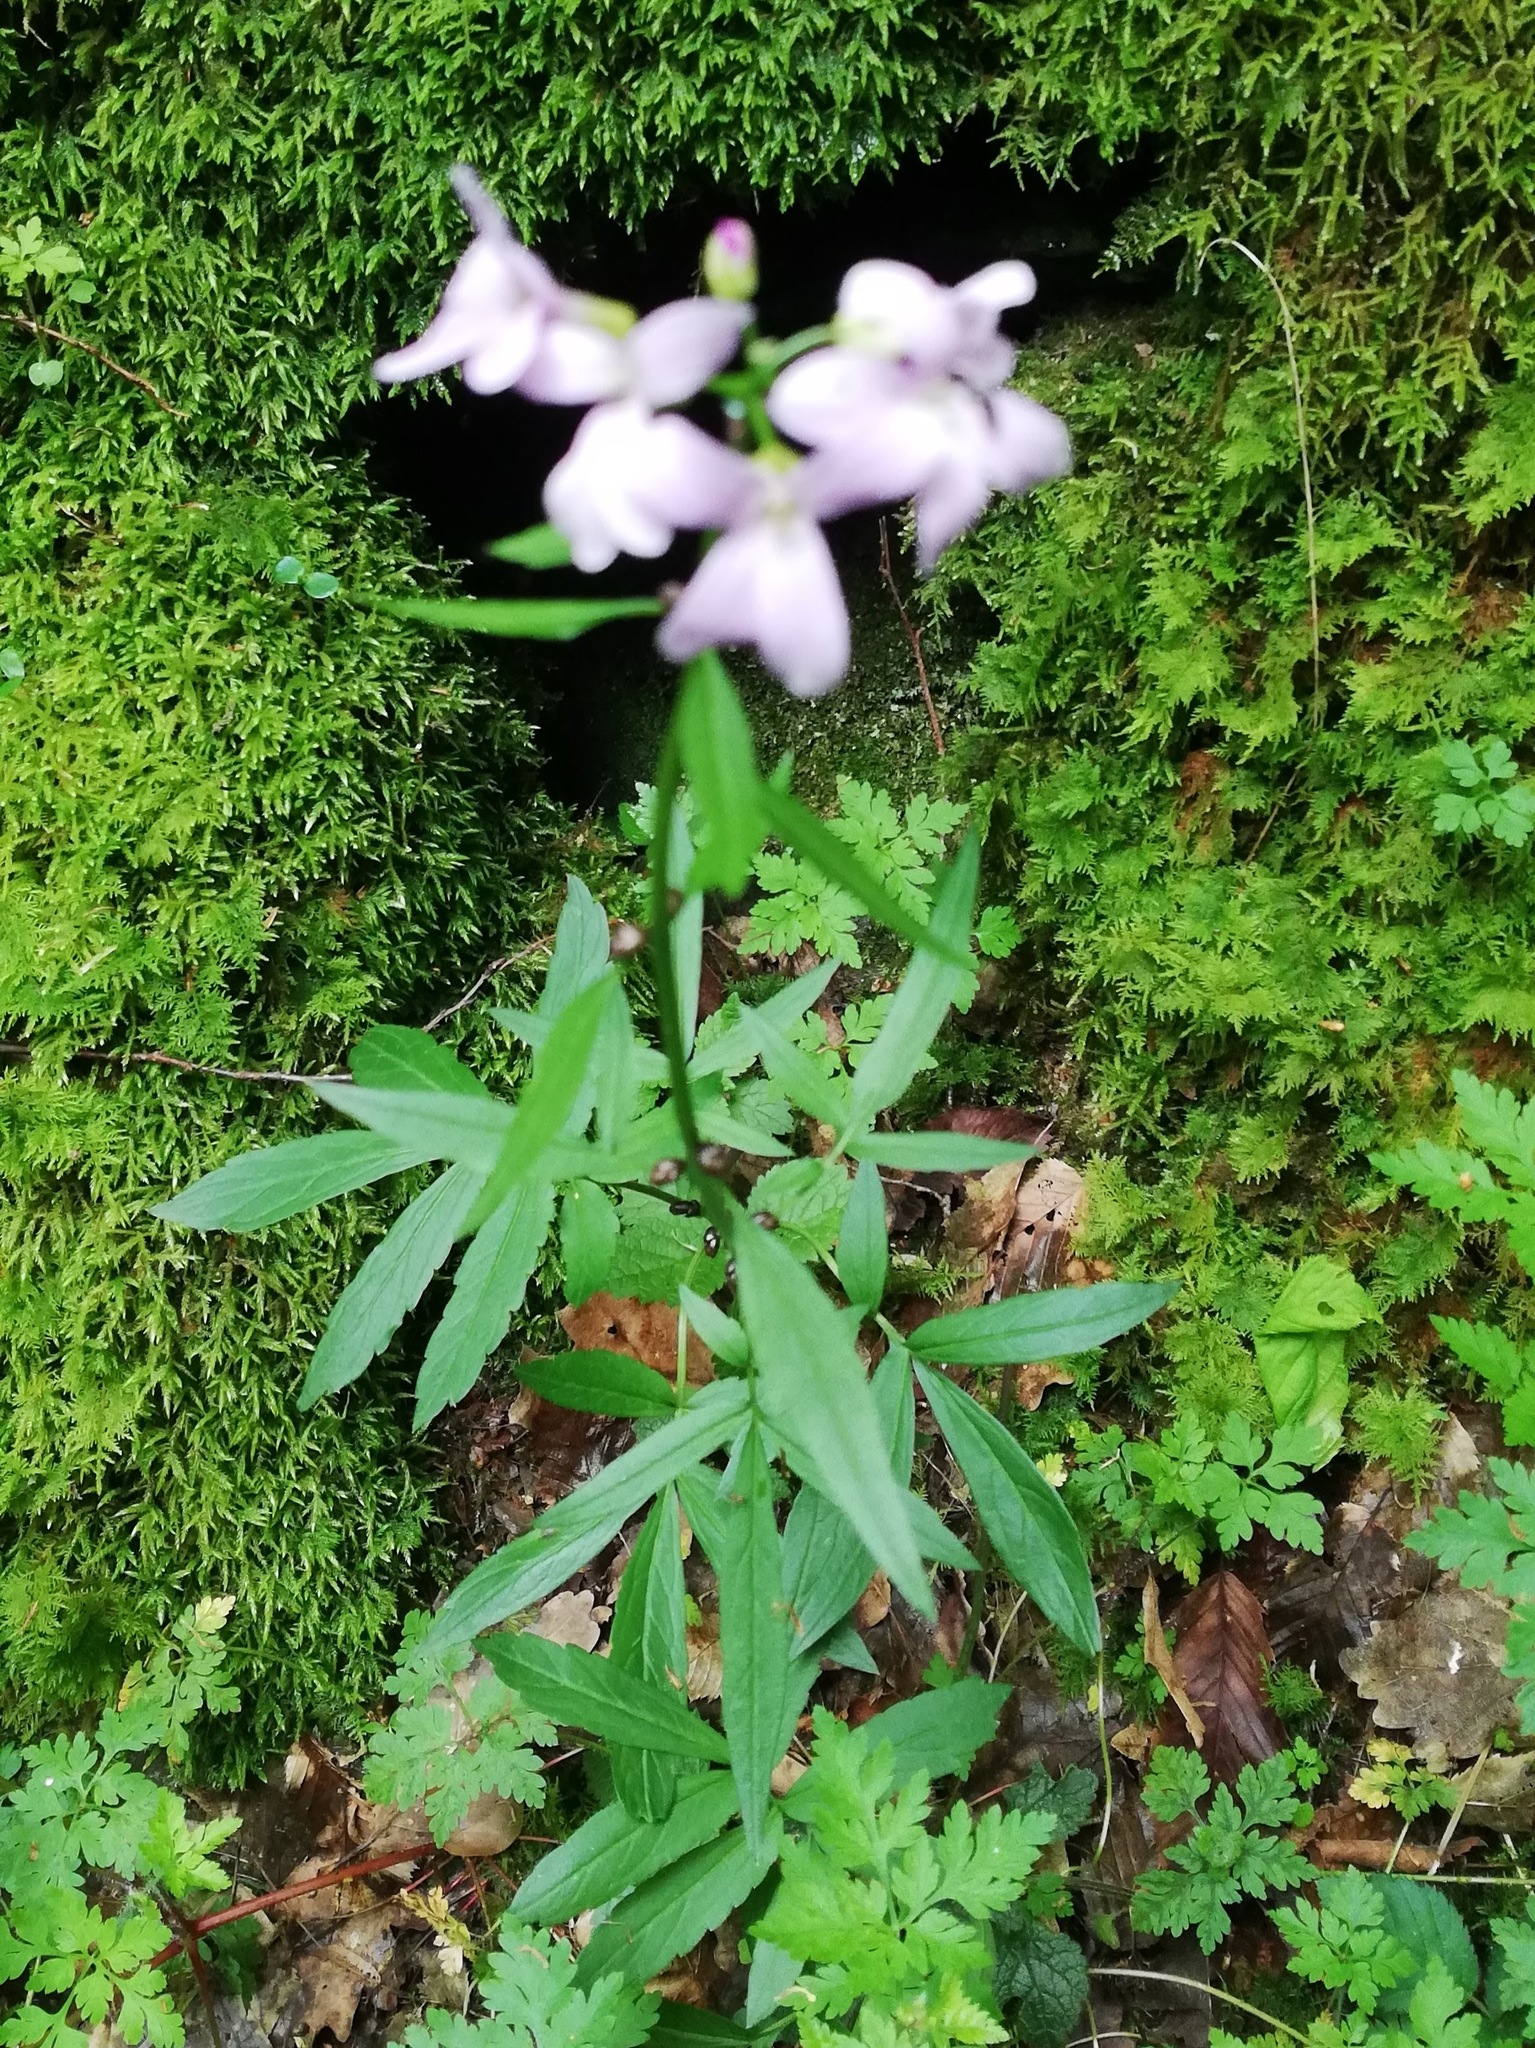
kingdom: Plantae
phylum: Tracheophyta
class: Magnoliopsida
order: Brassicales
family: Brassicaceae
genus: Cardamine
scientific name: Cardamine bulbifera
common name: Coralroot bittercress
